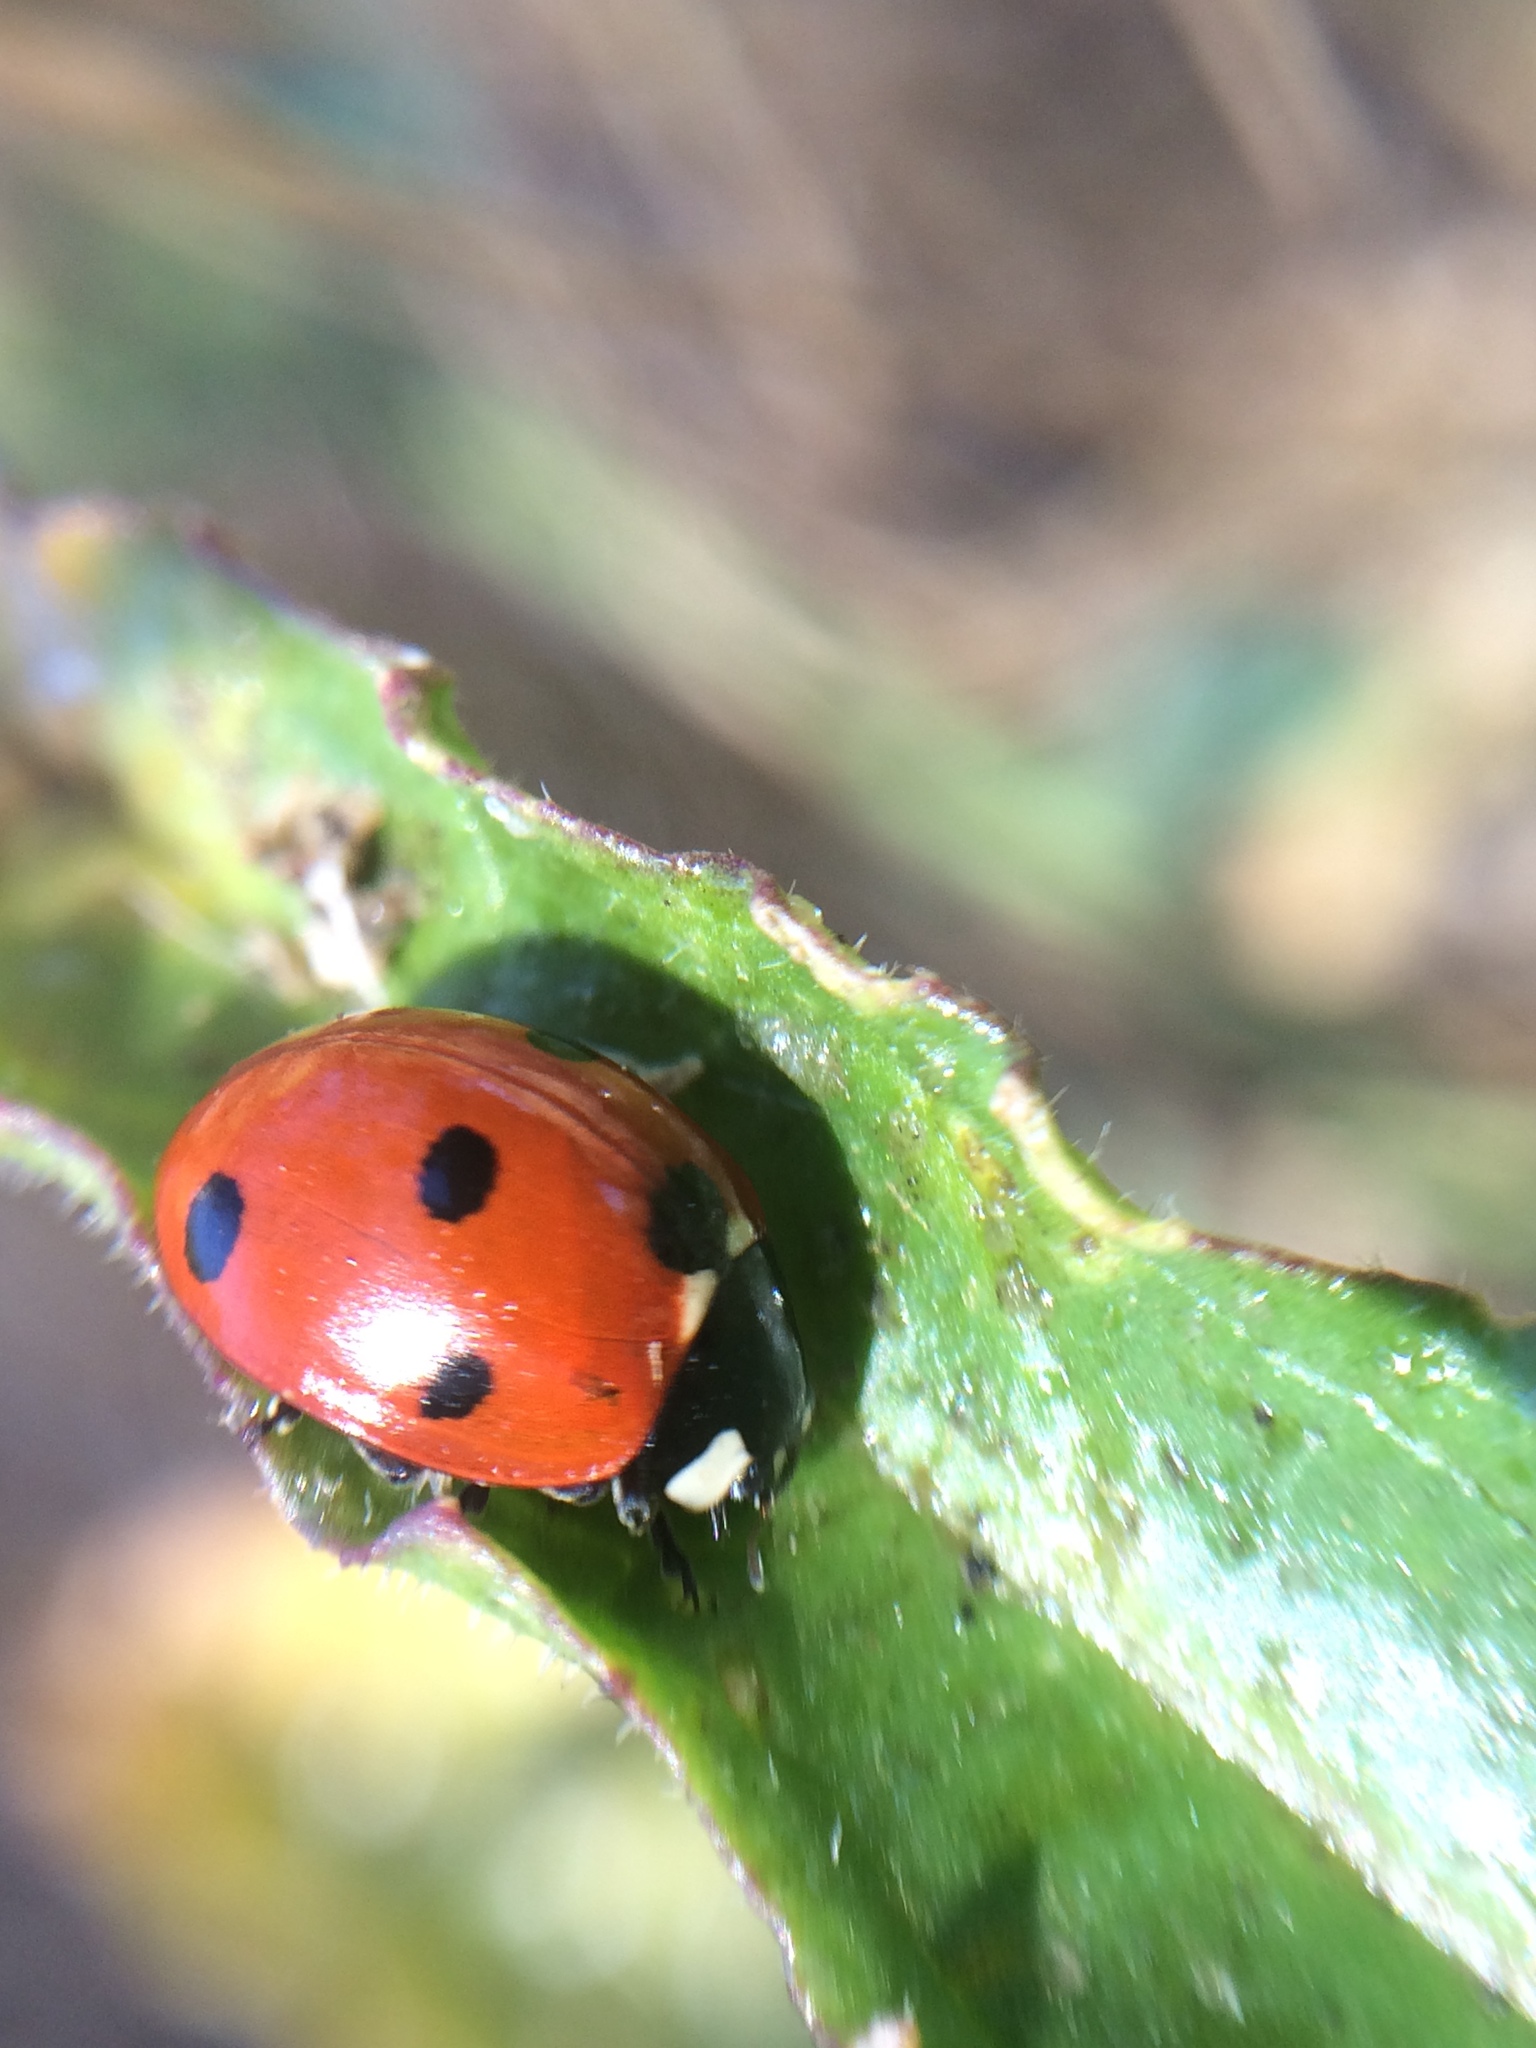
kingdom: Animalia
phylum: Arthropoda
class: Insecta
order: Coleoptera
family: Coccinellidae
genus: Coccinella
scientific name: Coccinella septempunctata
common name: Sevenspotted lady beetle
